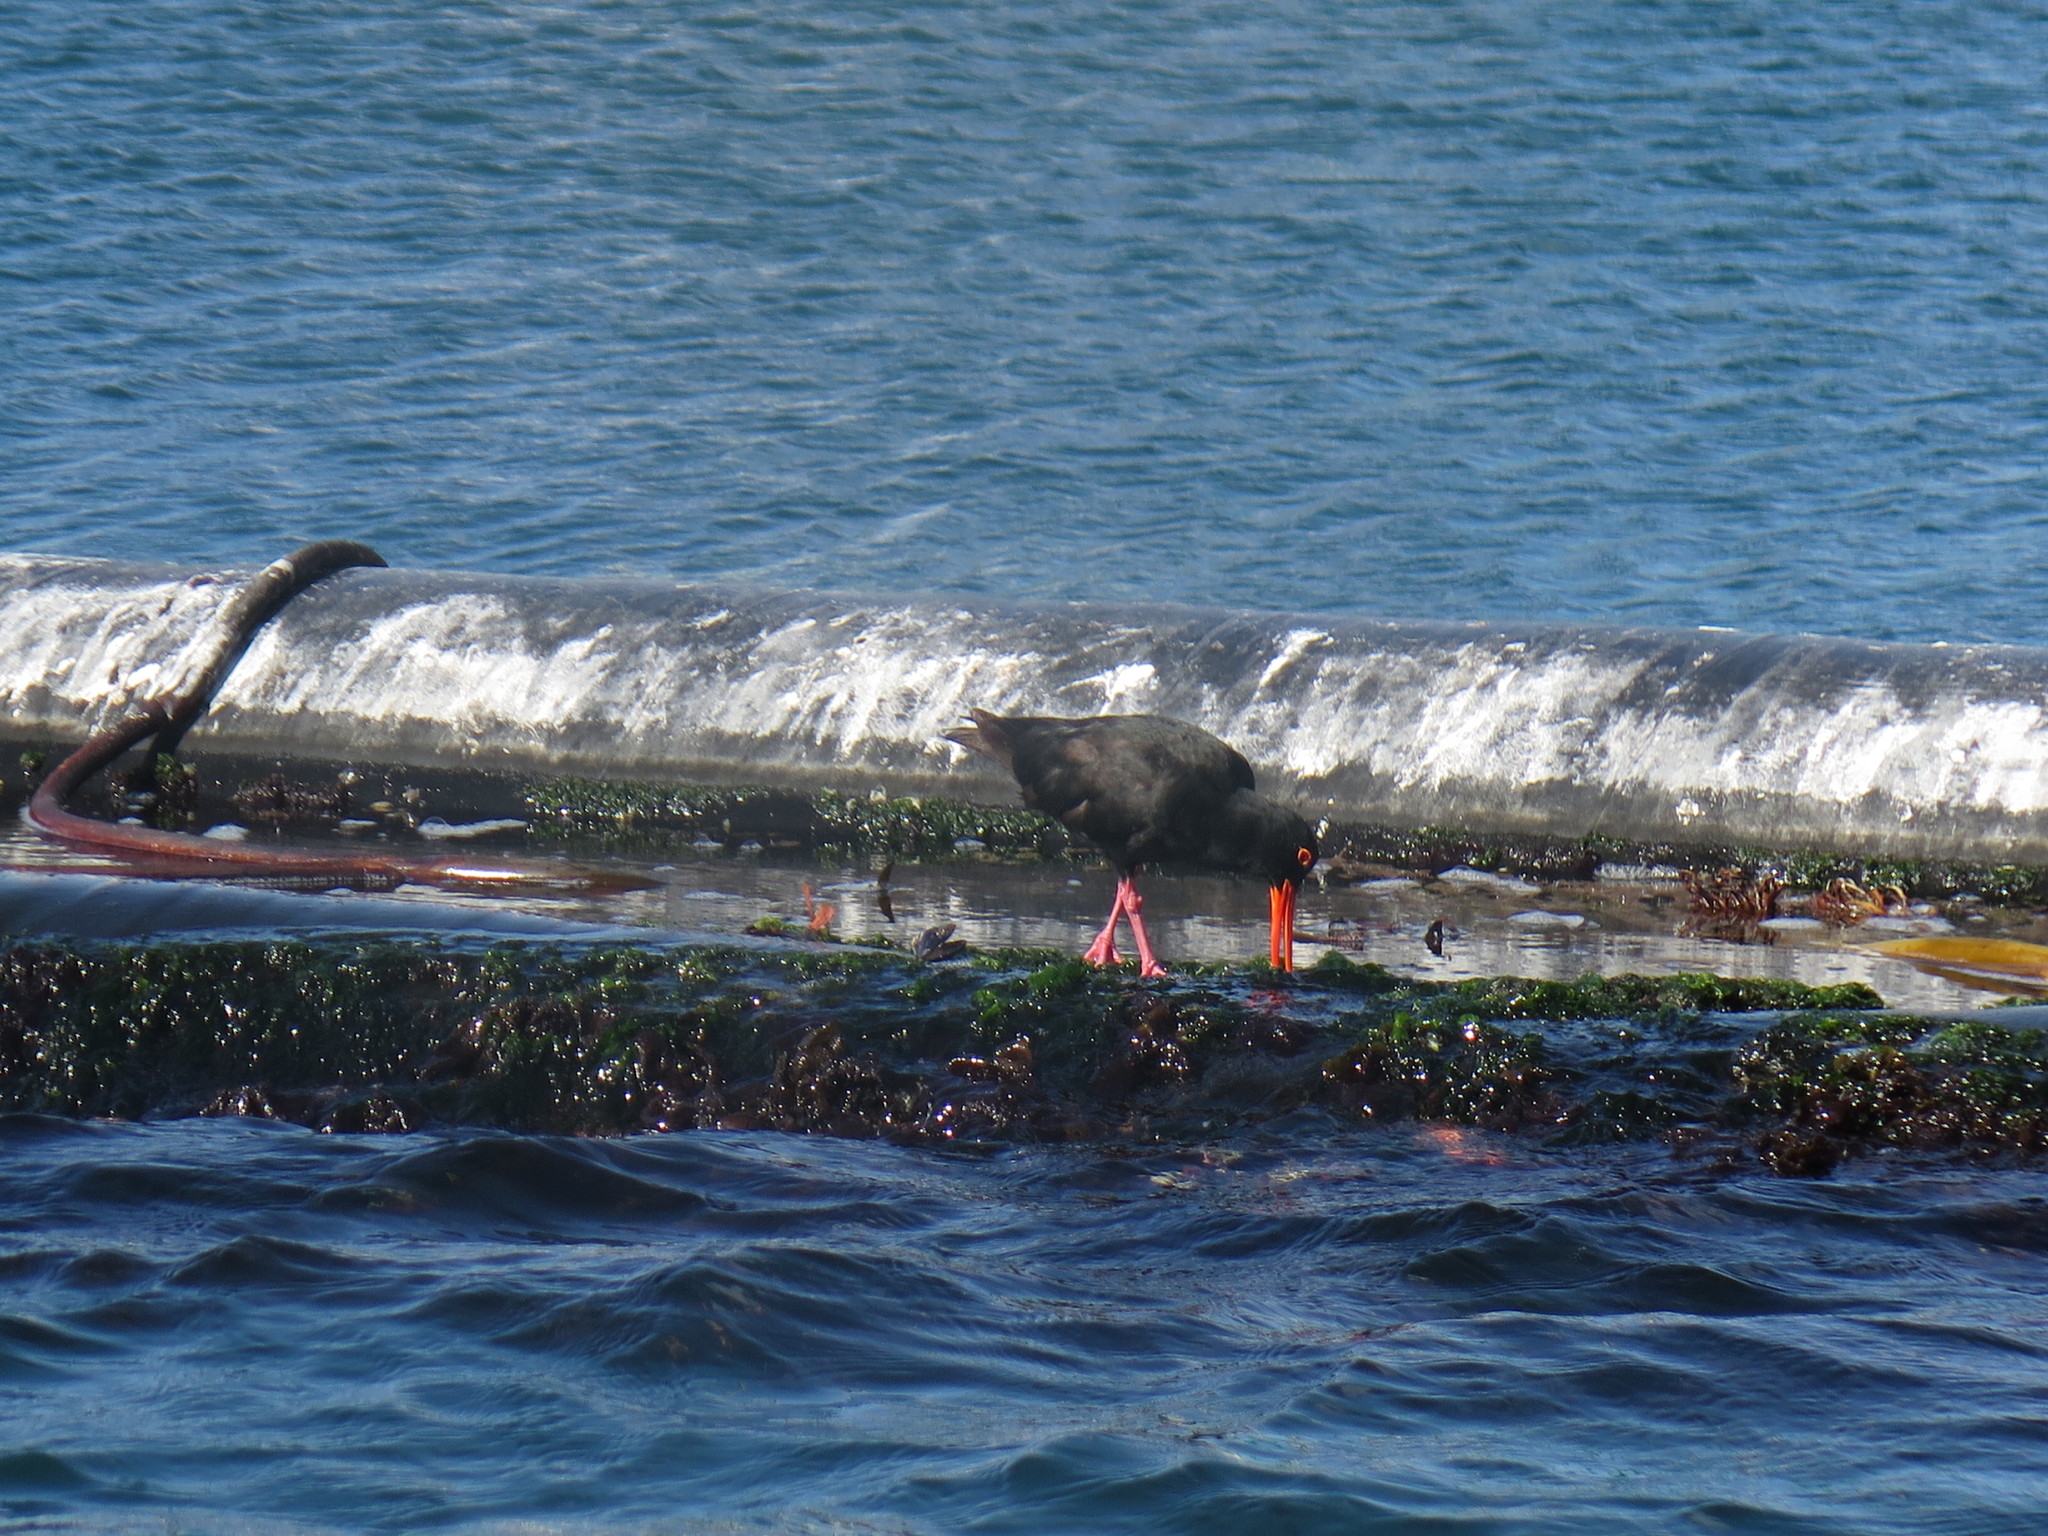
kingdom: Animalia
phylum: Chordata
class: Aves
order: Charadriiformes
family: Haematopodidae
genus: Haematopus
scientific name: Haematopus moquini
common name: African oystercatcher
